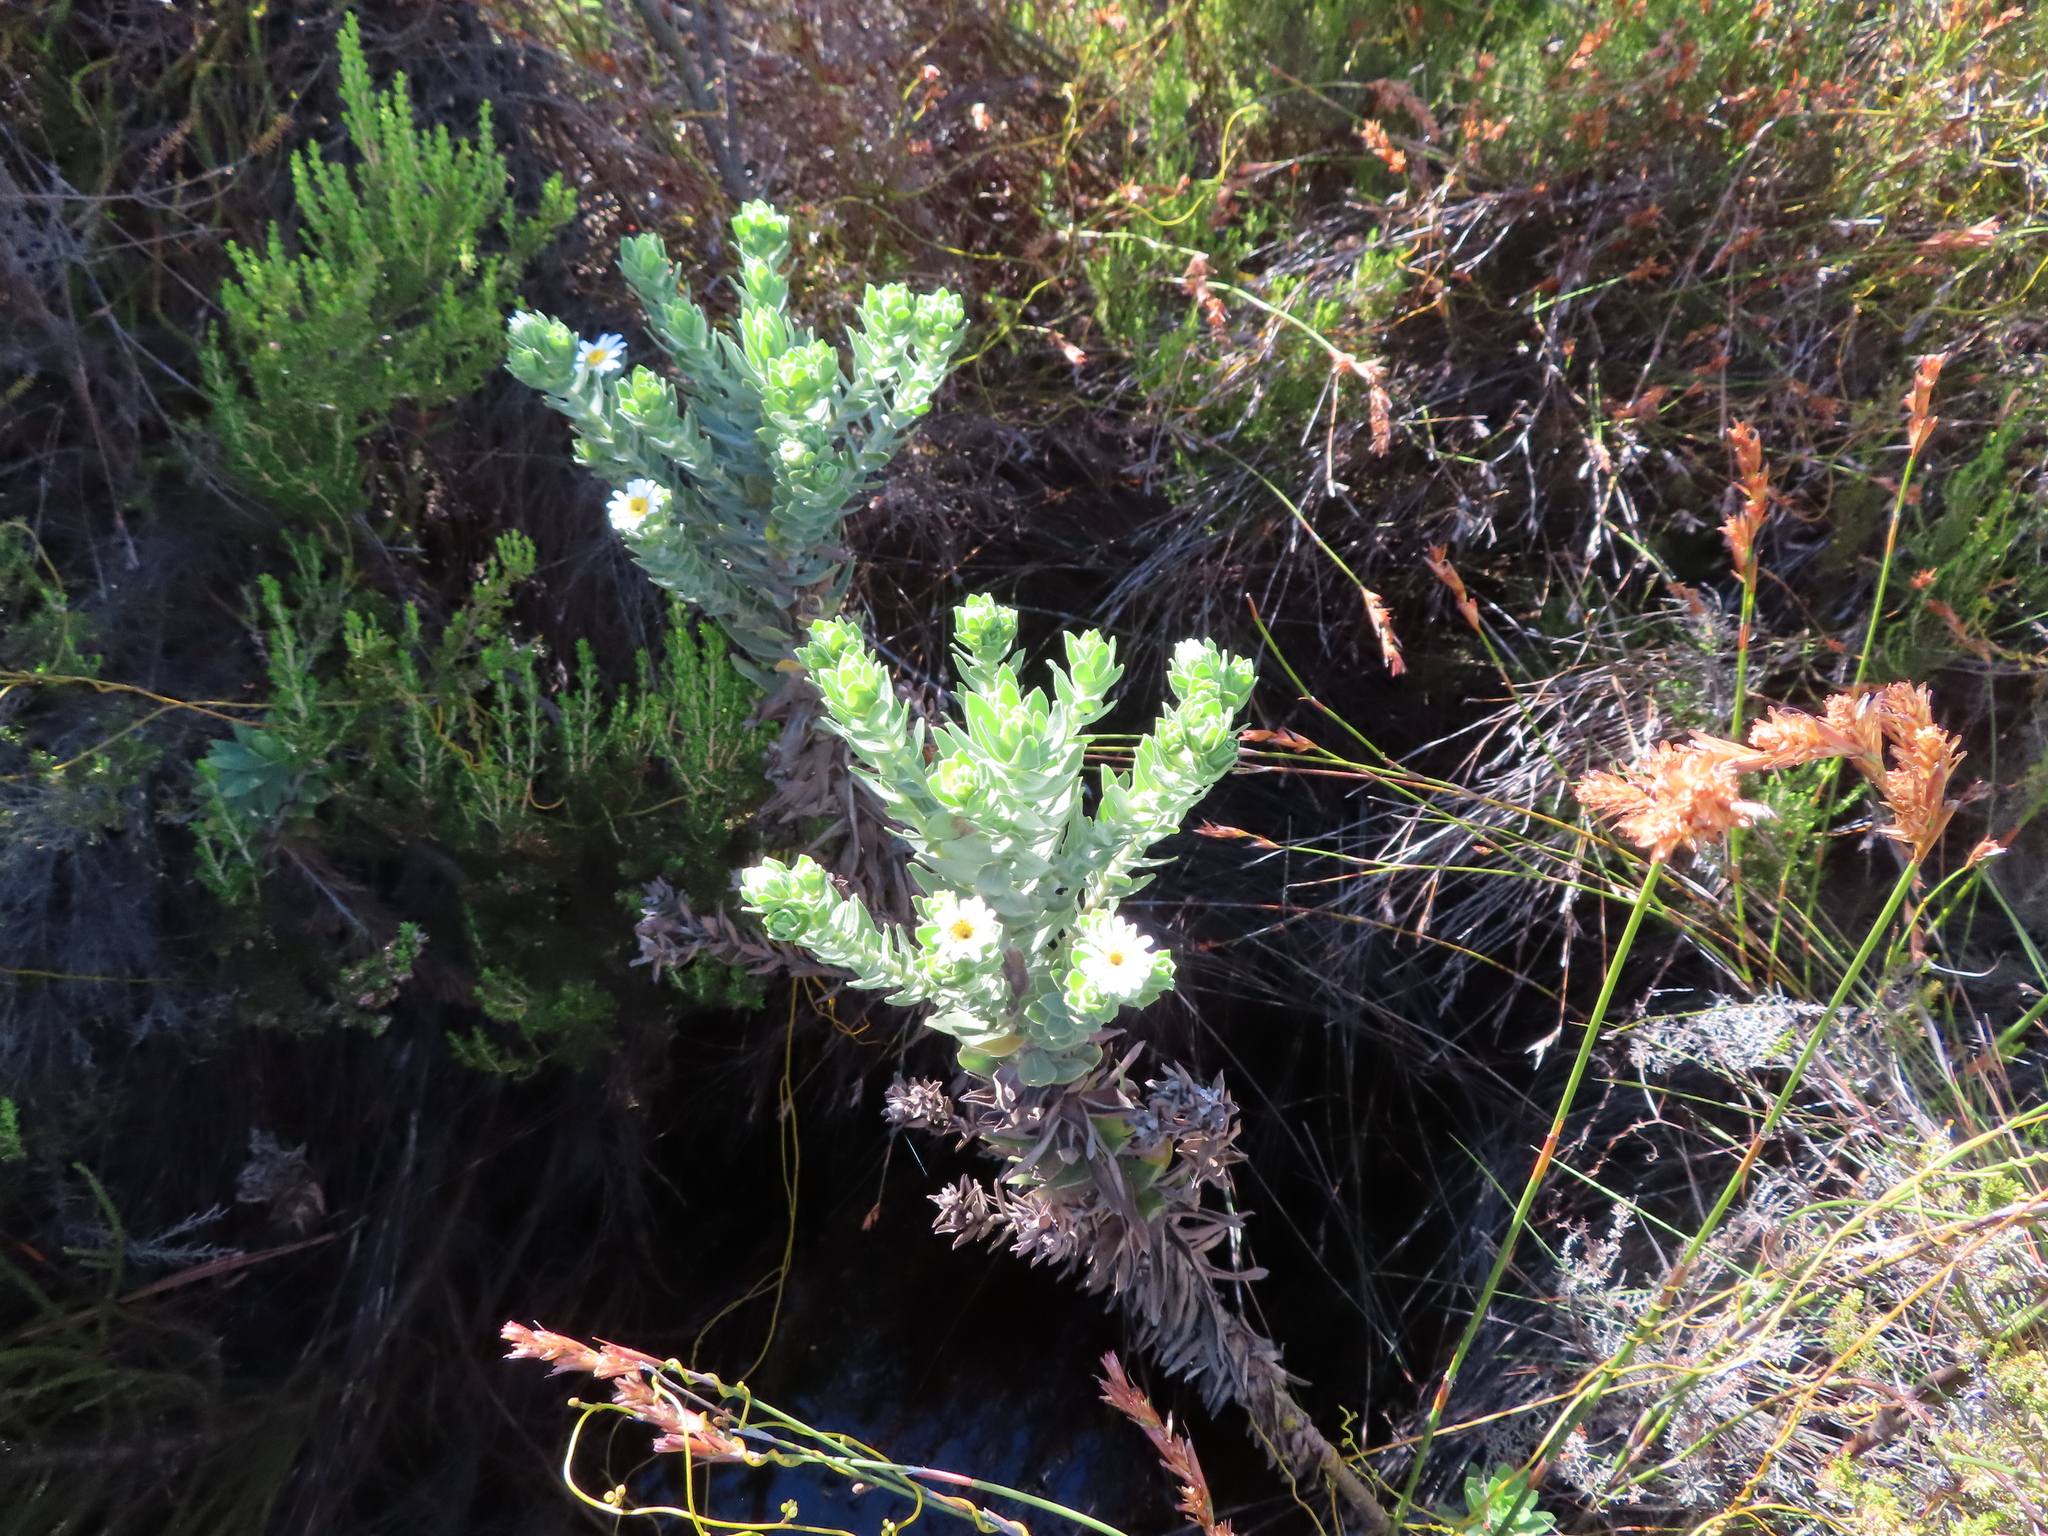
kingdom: Plantae
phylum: Tracheophyta
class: Magnoliopsida
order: Asterales
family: Asteraceae
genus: Osmitopsis
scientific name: Osmitopsis asteriscoides
